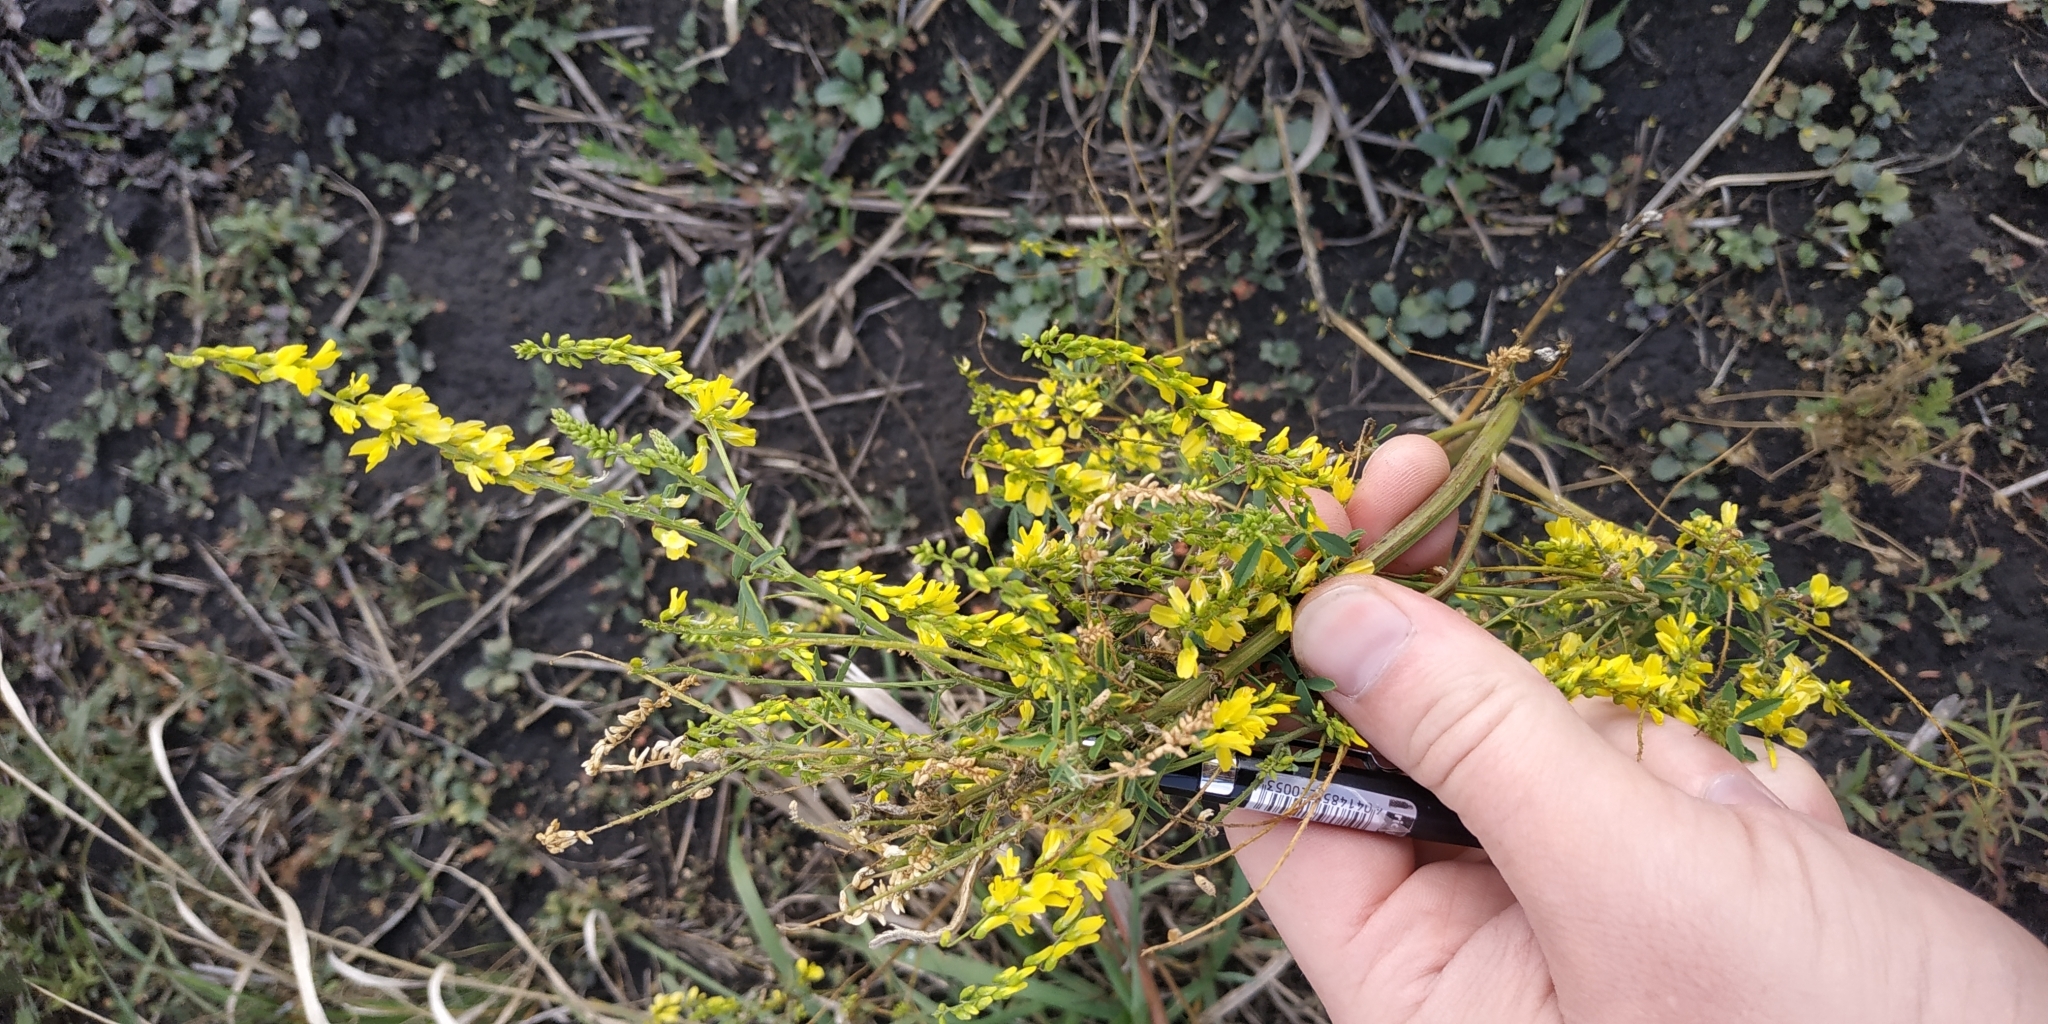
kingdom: Plantae
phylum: Tracheophyta
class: Magnoliopsida
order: Fabales
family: Fabaceae
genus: Melilotus
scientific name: Melilotus officinalis
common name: Sweetclover
